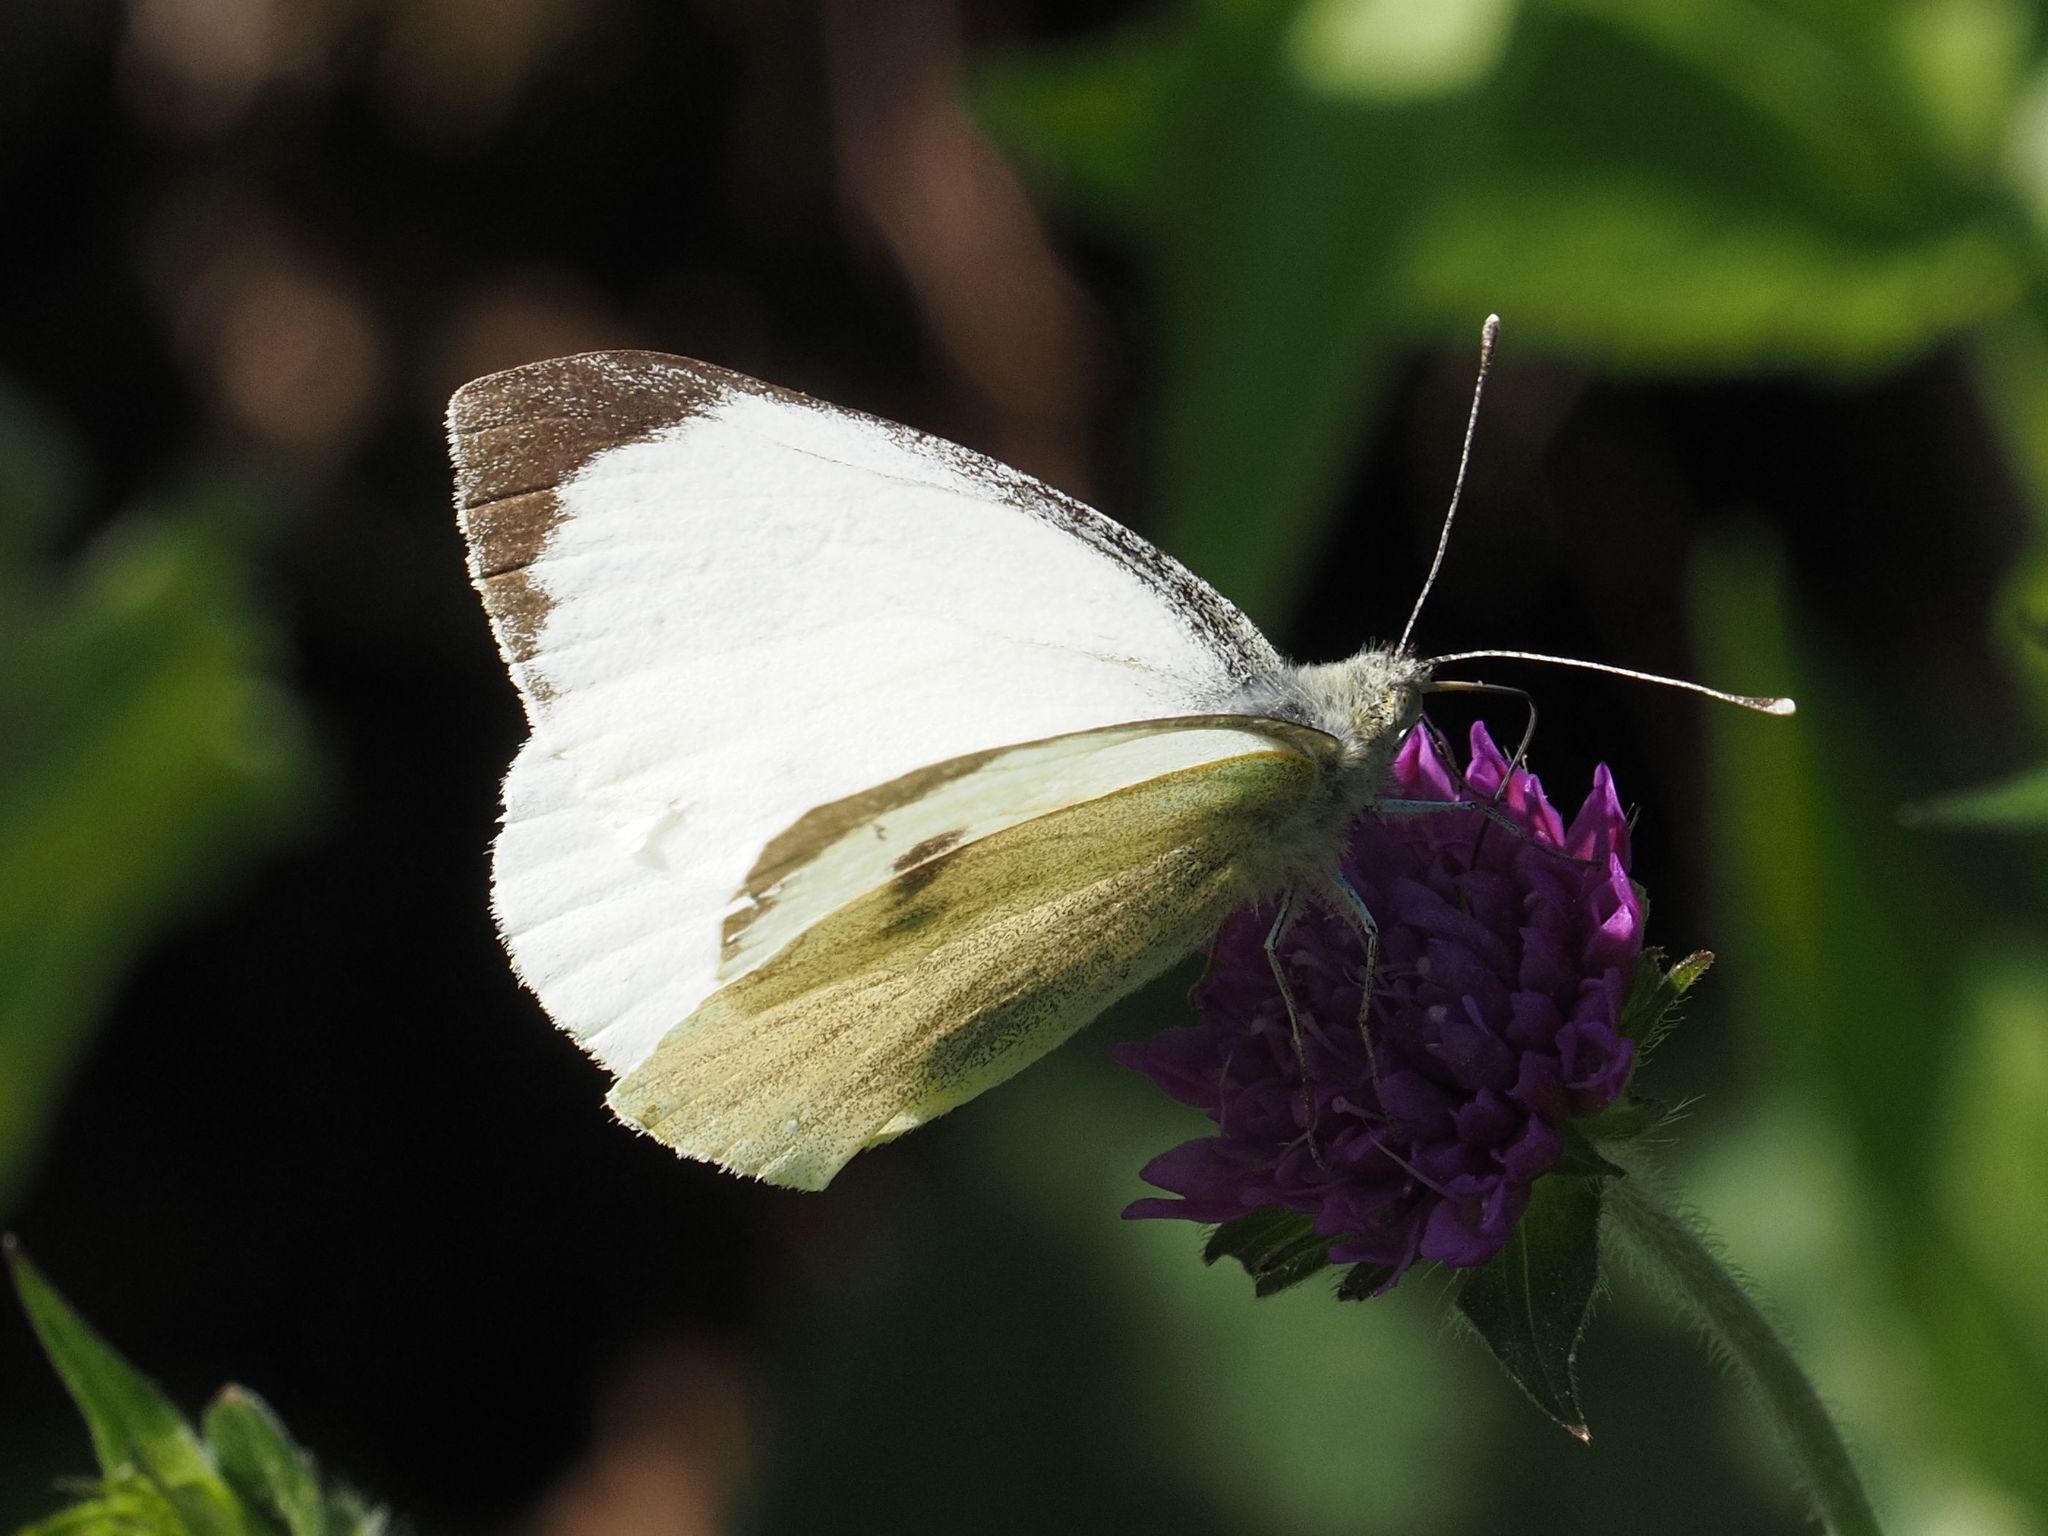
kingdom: Animalia
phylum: Arthropoda
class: Insecta
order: Lepidoptera
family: Pieridae
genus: Pieris
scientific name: Pieris brassicae
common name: Large white
